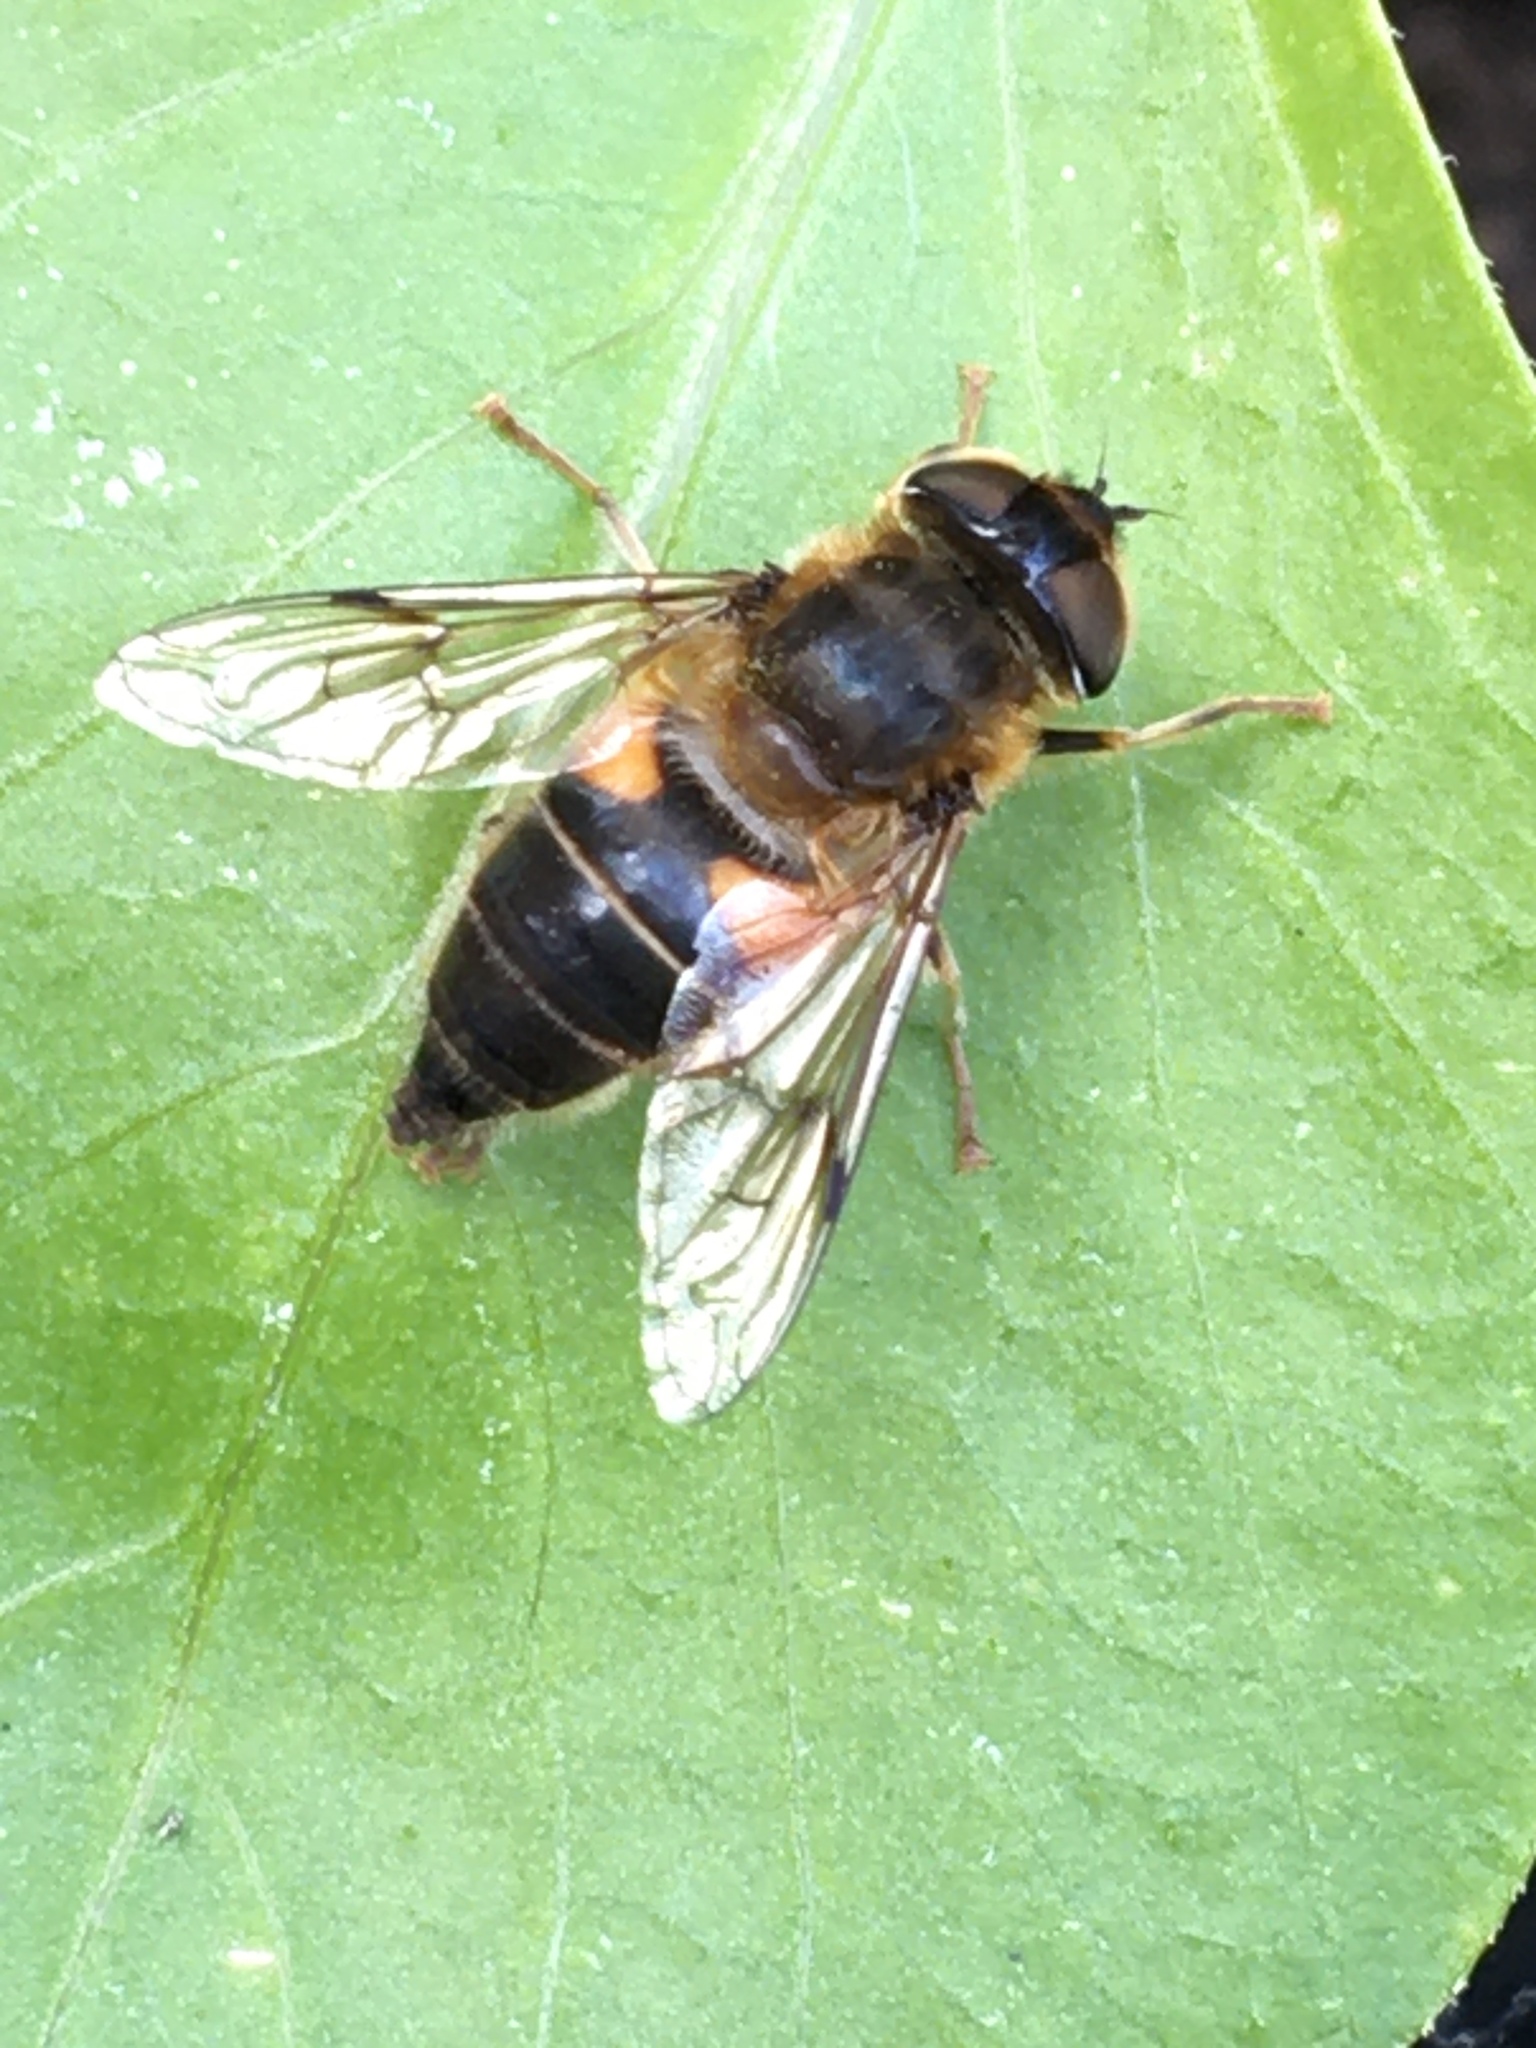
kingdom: Animalia
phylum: Arthropoda
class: Insecta
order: Diptera
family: Syrphidae
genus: Eristalis
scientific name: Eristalis pertinax
